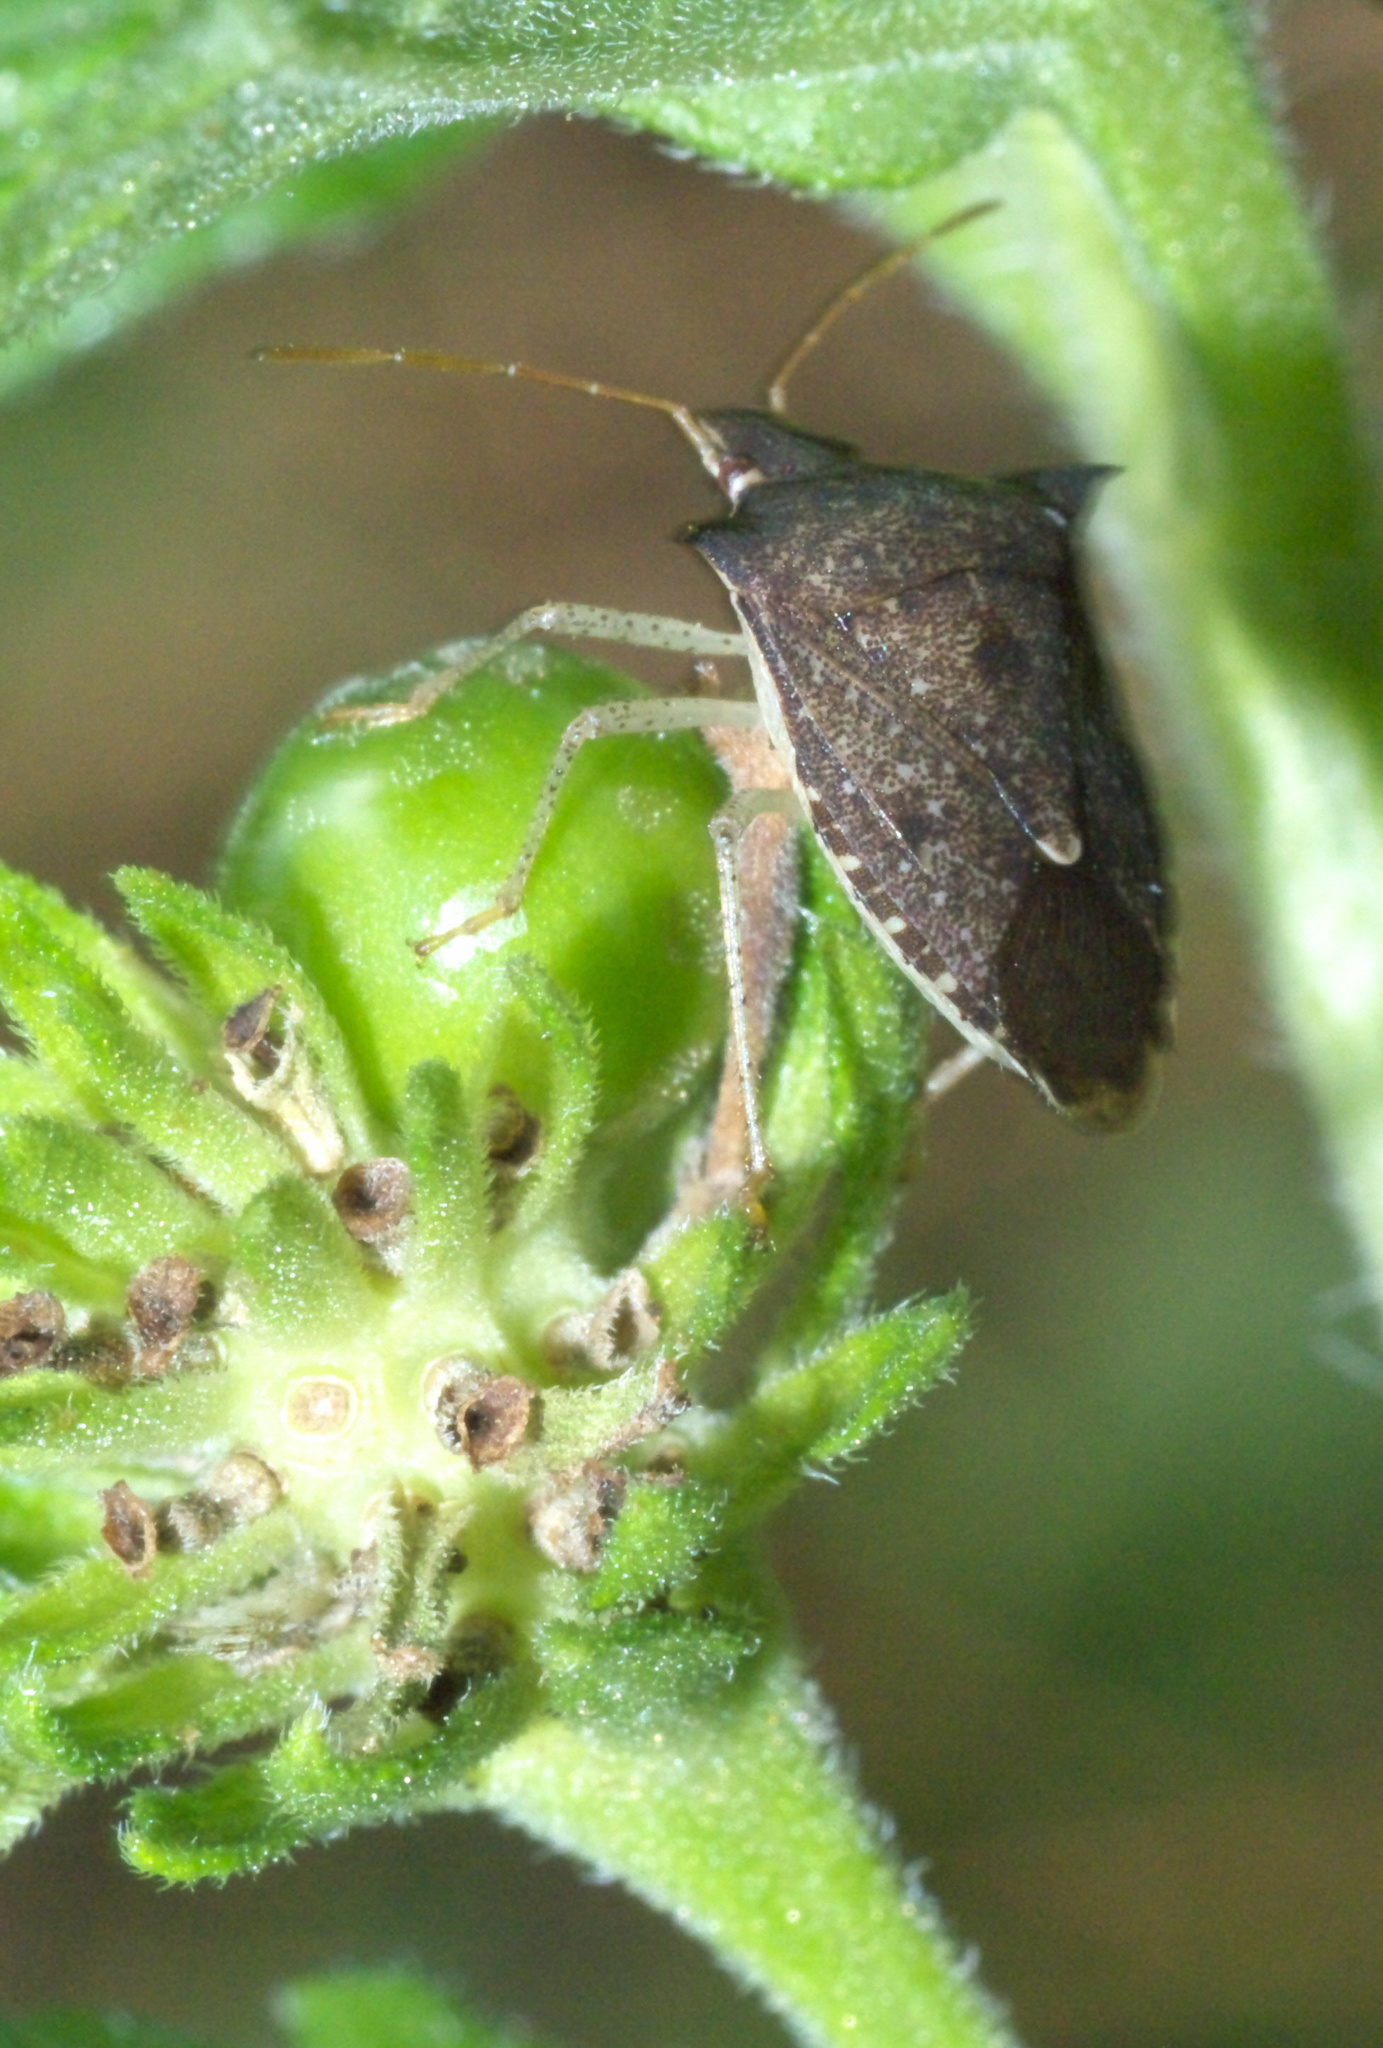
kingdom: Animalia
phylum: Arthropoda
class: Insecta
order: Hemiptera
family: Pentatomidae
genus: Euschistus
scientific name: Euschistus tristigmus
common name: Dusky stink bug
